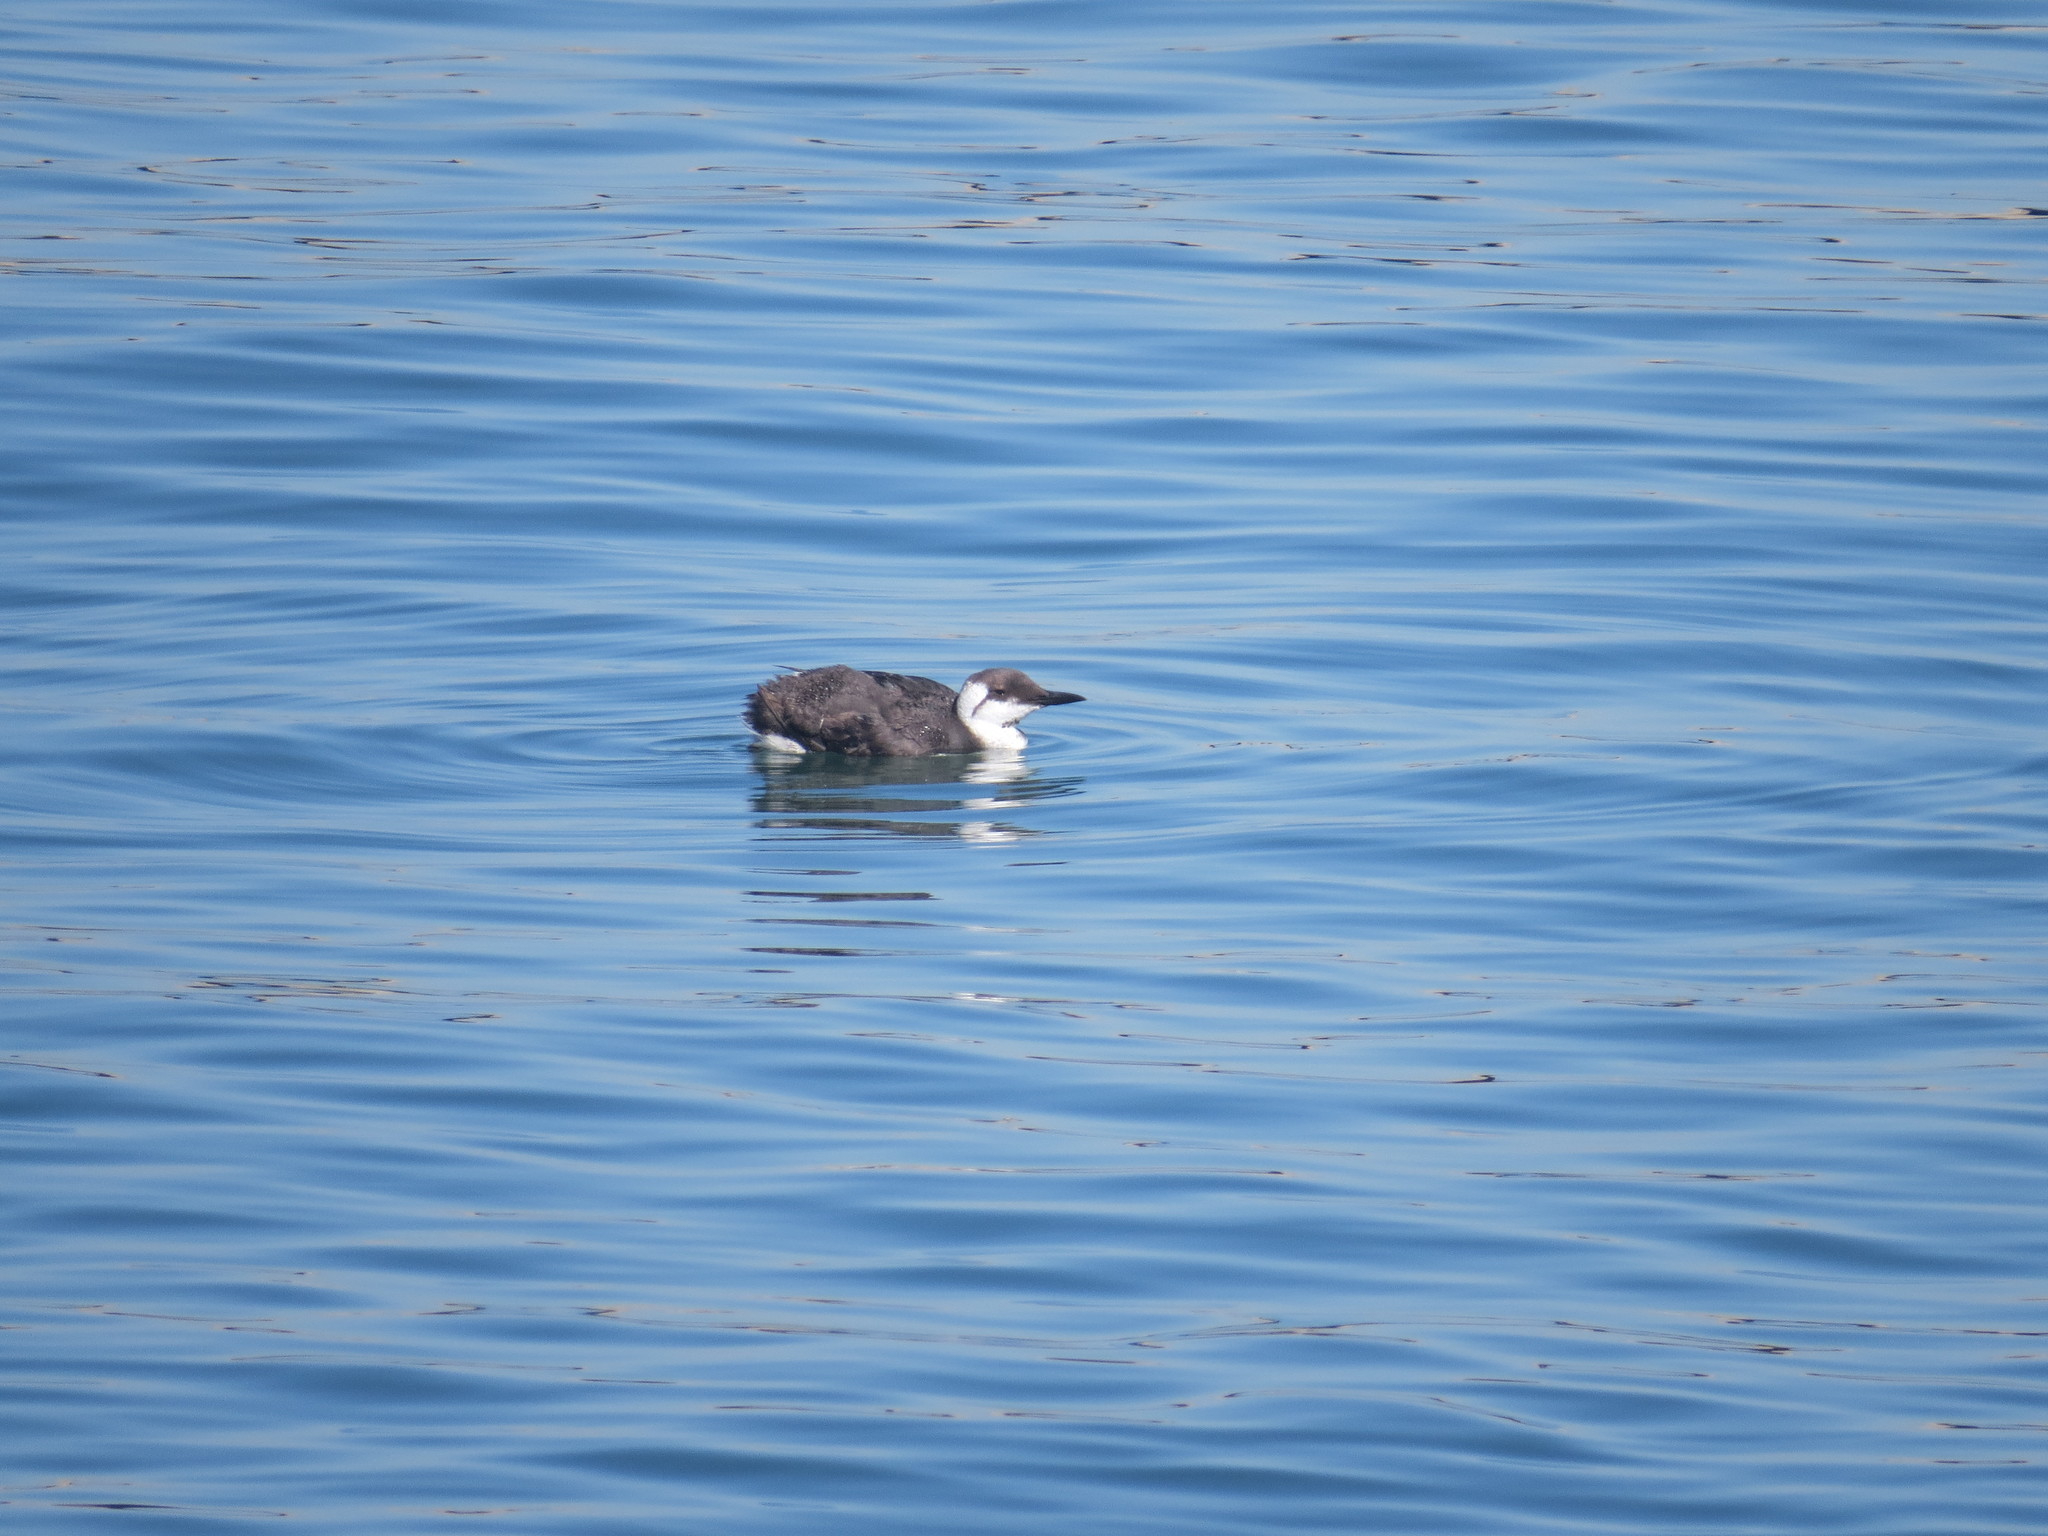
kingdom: Animalia
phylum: Chordata
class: Aves
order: Charadriiformes
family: Alcidae
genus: Uria
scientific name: Uria aalge
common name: Common murre
